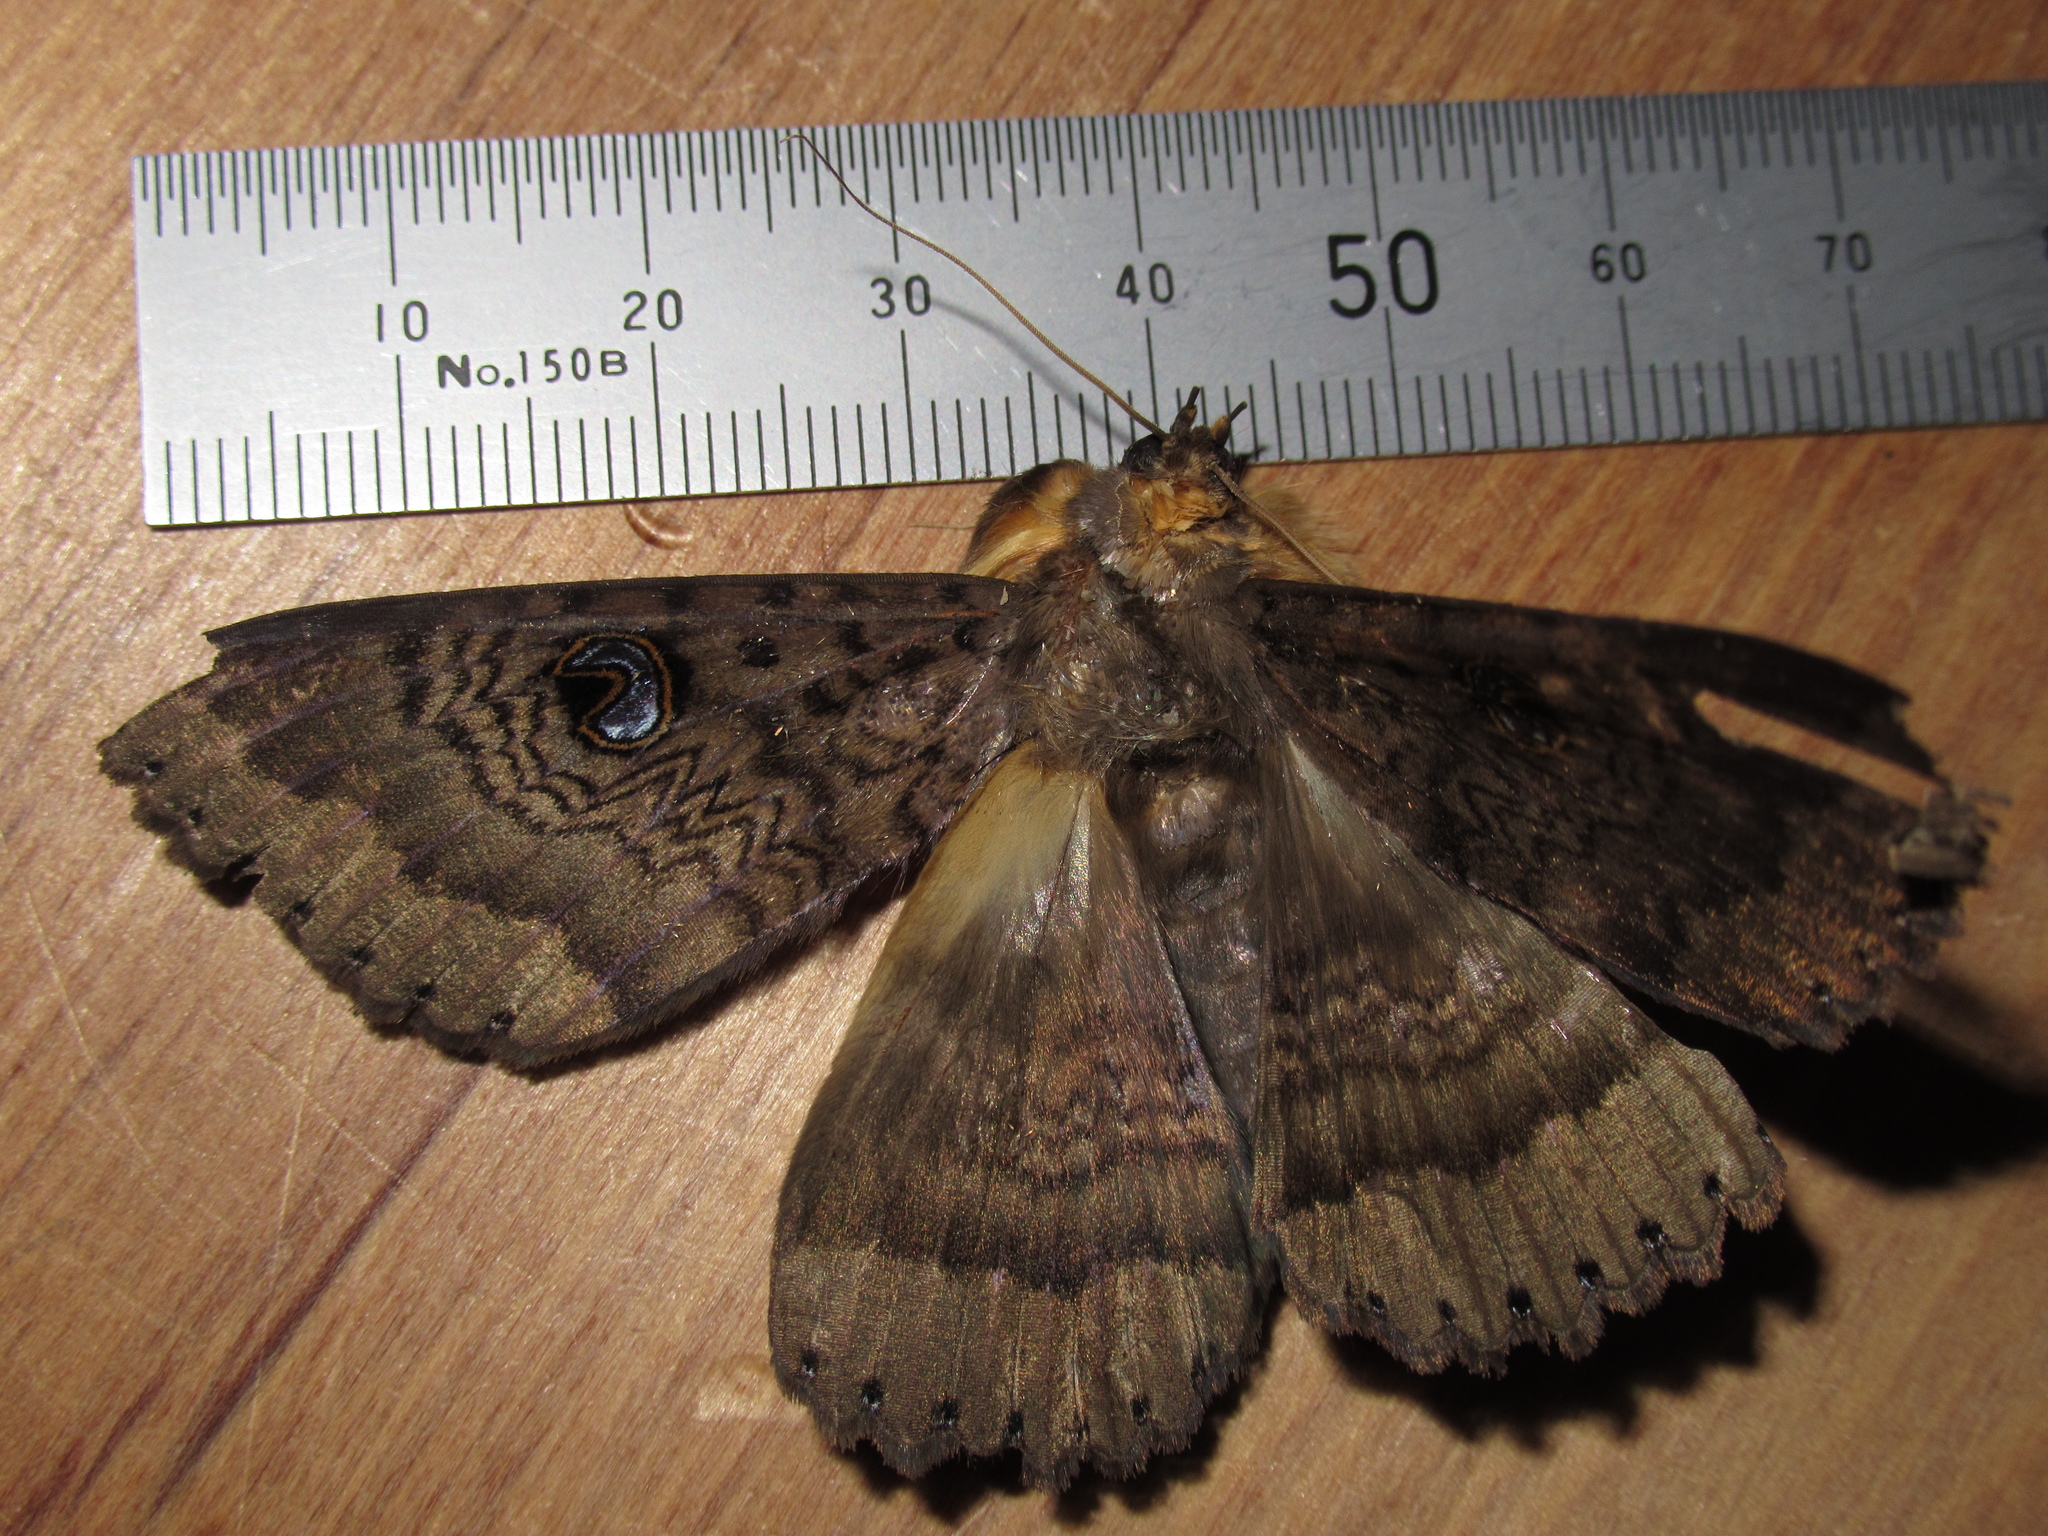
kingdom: Animalia
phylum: Arthropoda
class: Insecta
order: Lepidoptera
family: Erebidae
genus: Dasypodia
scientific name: Dasypodia cymatodes
